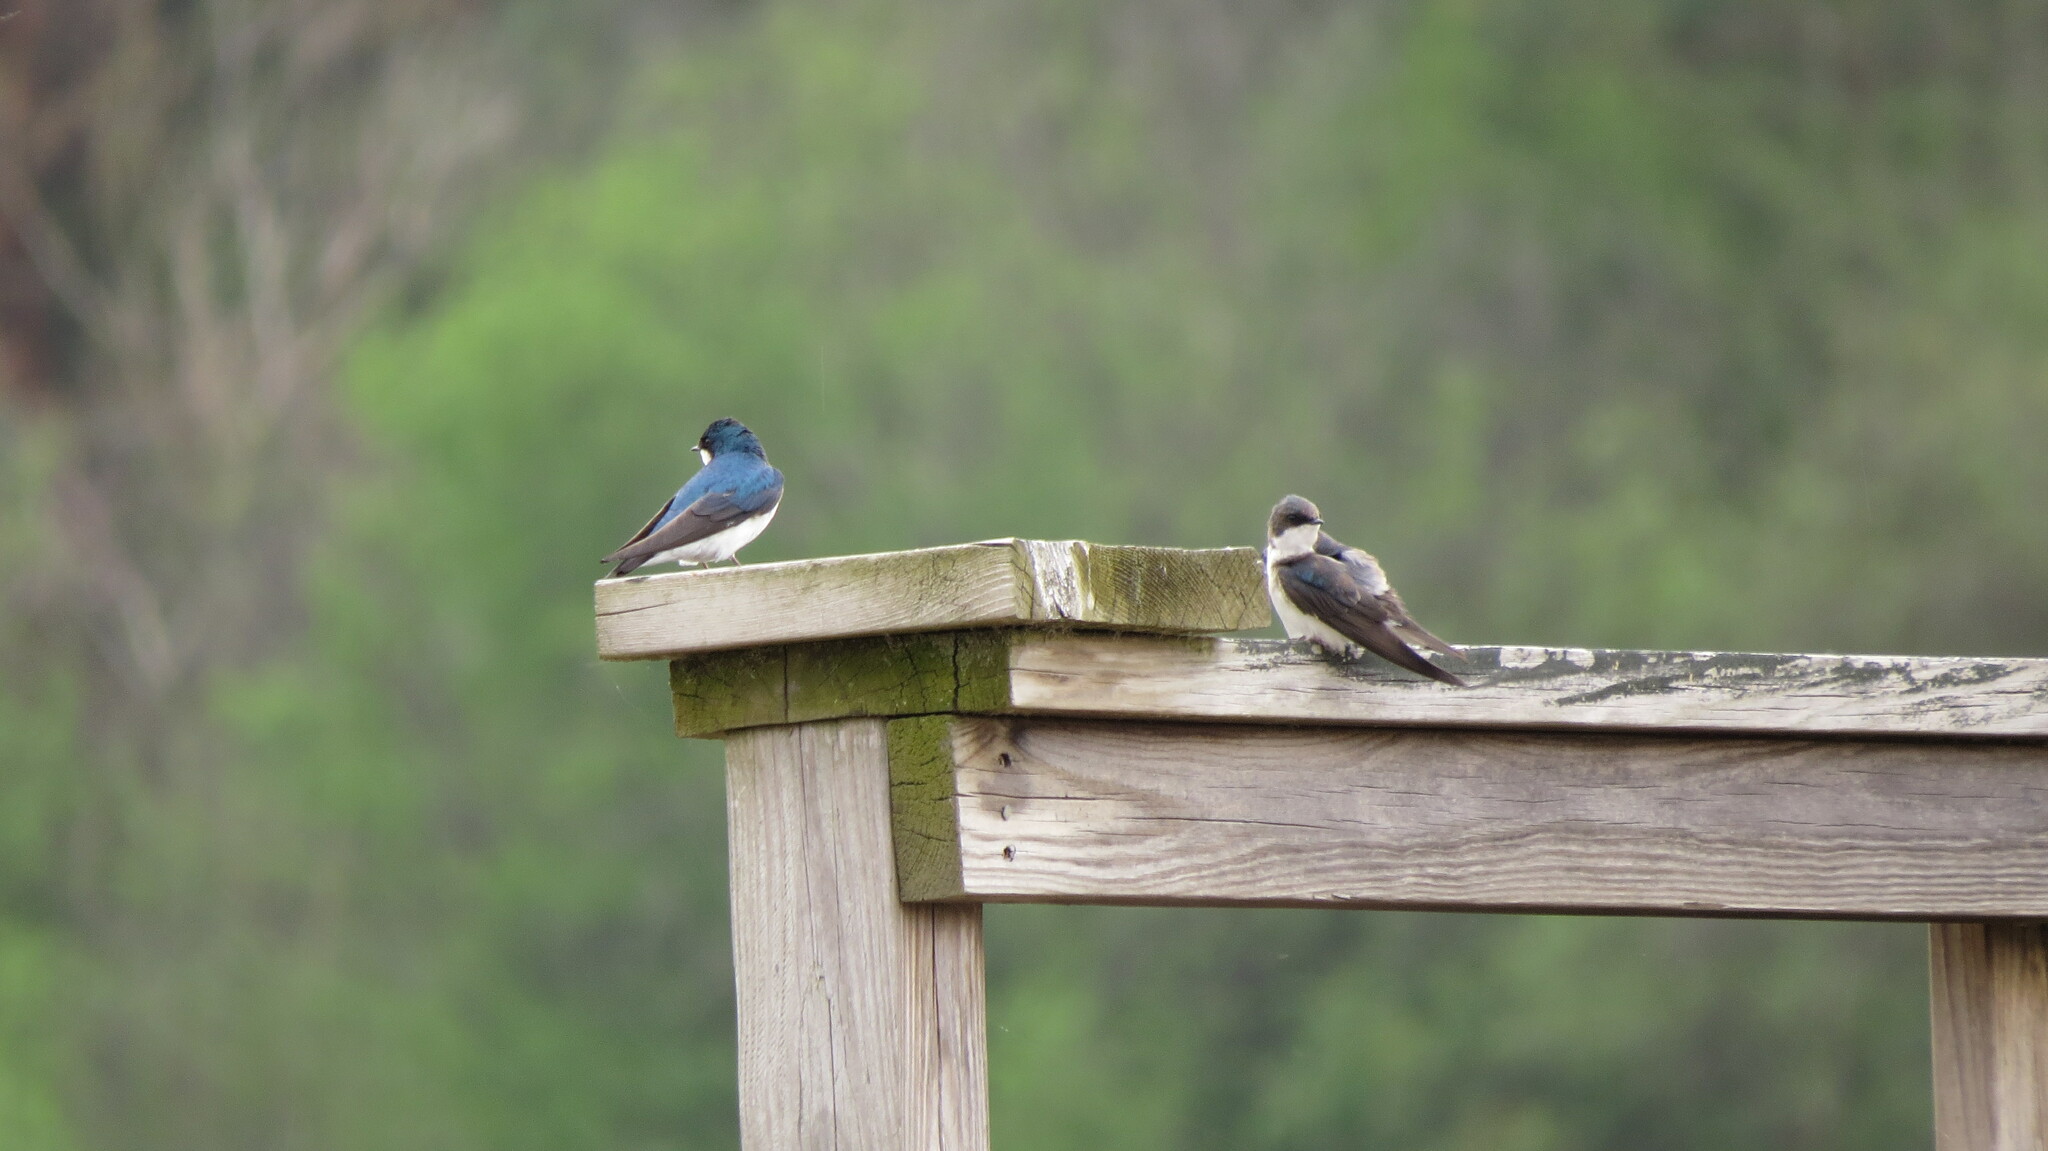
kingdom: Animalia
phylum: Chordata
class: Aves
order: Passeriformes
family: Hirundinidae
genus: Tachycineta
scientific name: Tachycineta bicolor
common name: Tree swallow
